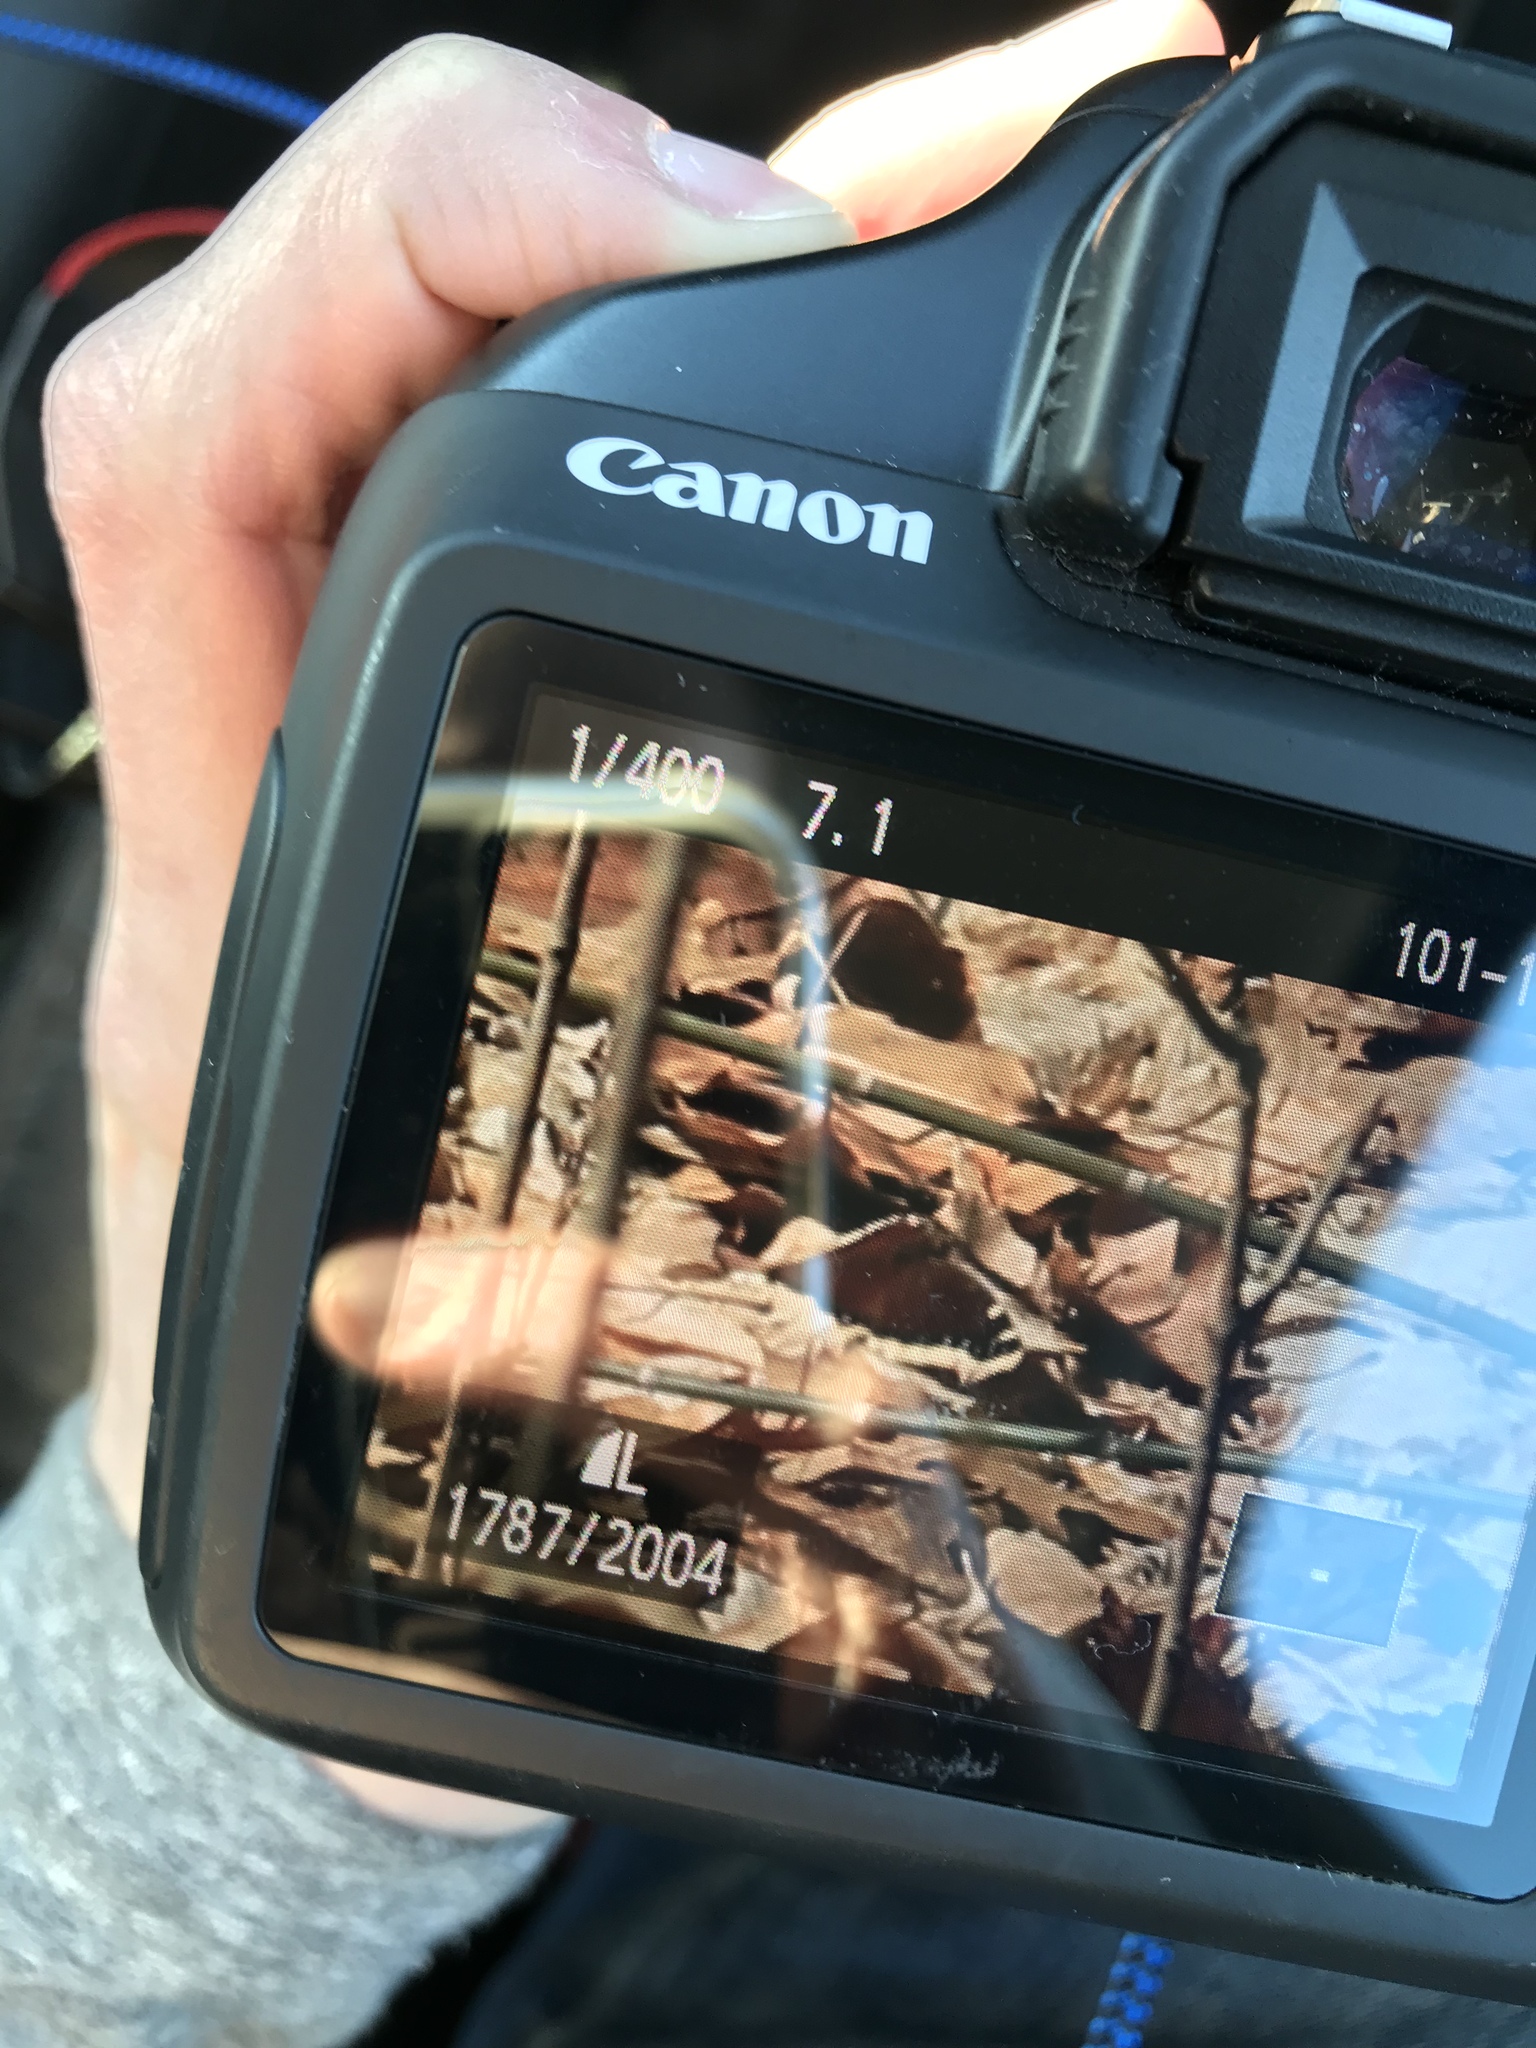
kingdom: Animalia
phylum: Arthropoda
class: Insecta
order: Lepidoptera
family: Nymphalidae
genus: Nymphalis
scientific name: Nymphalis antiopa
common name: Camberwell beauty
